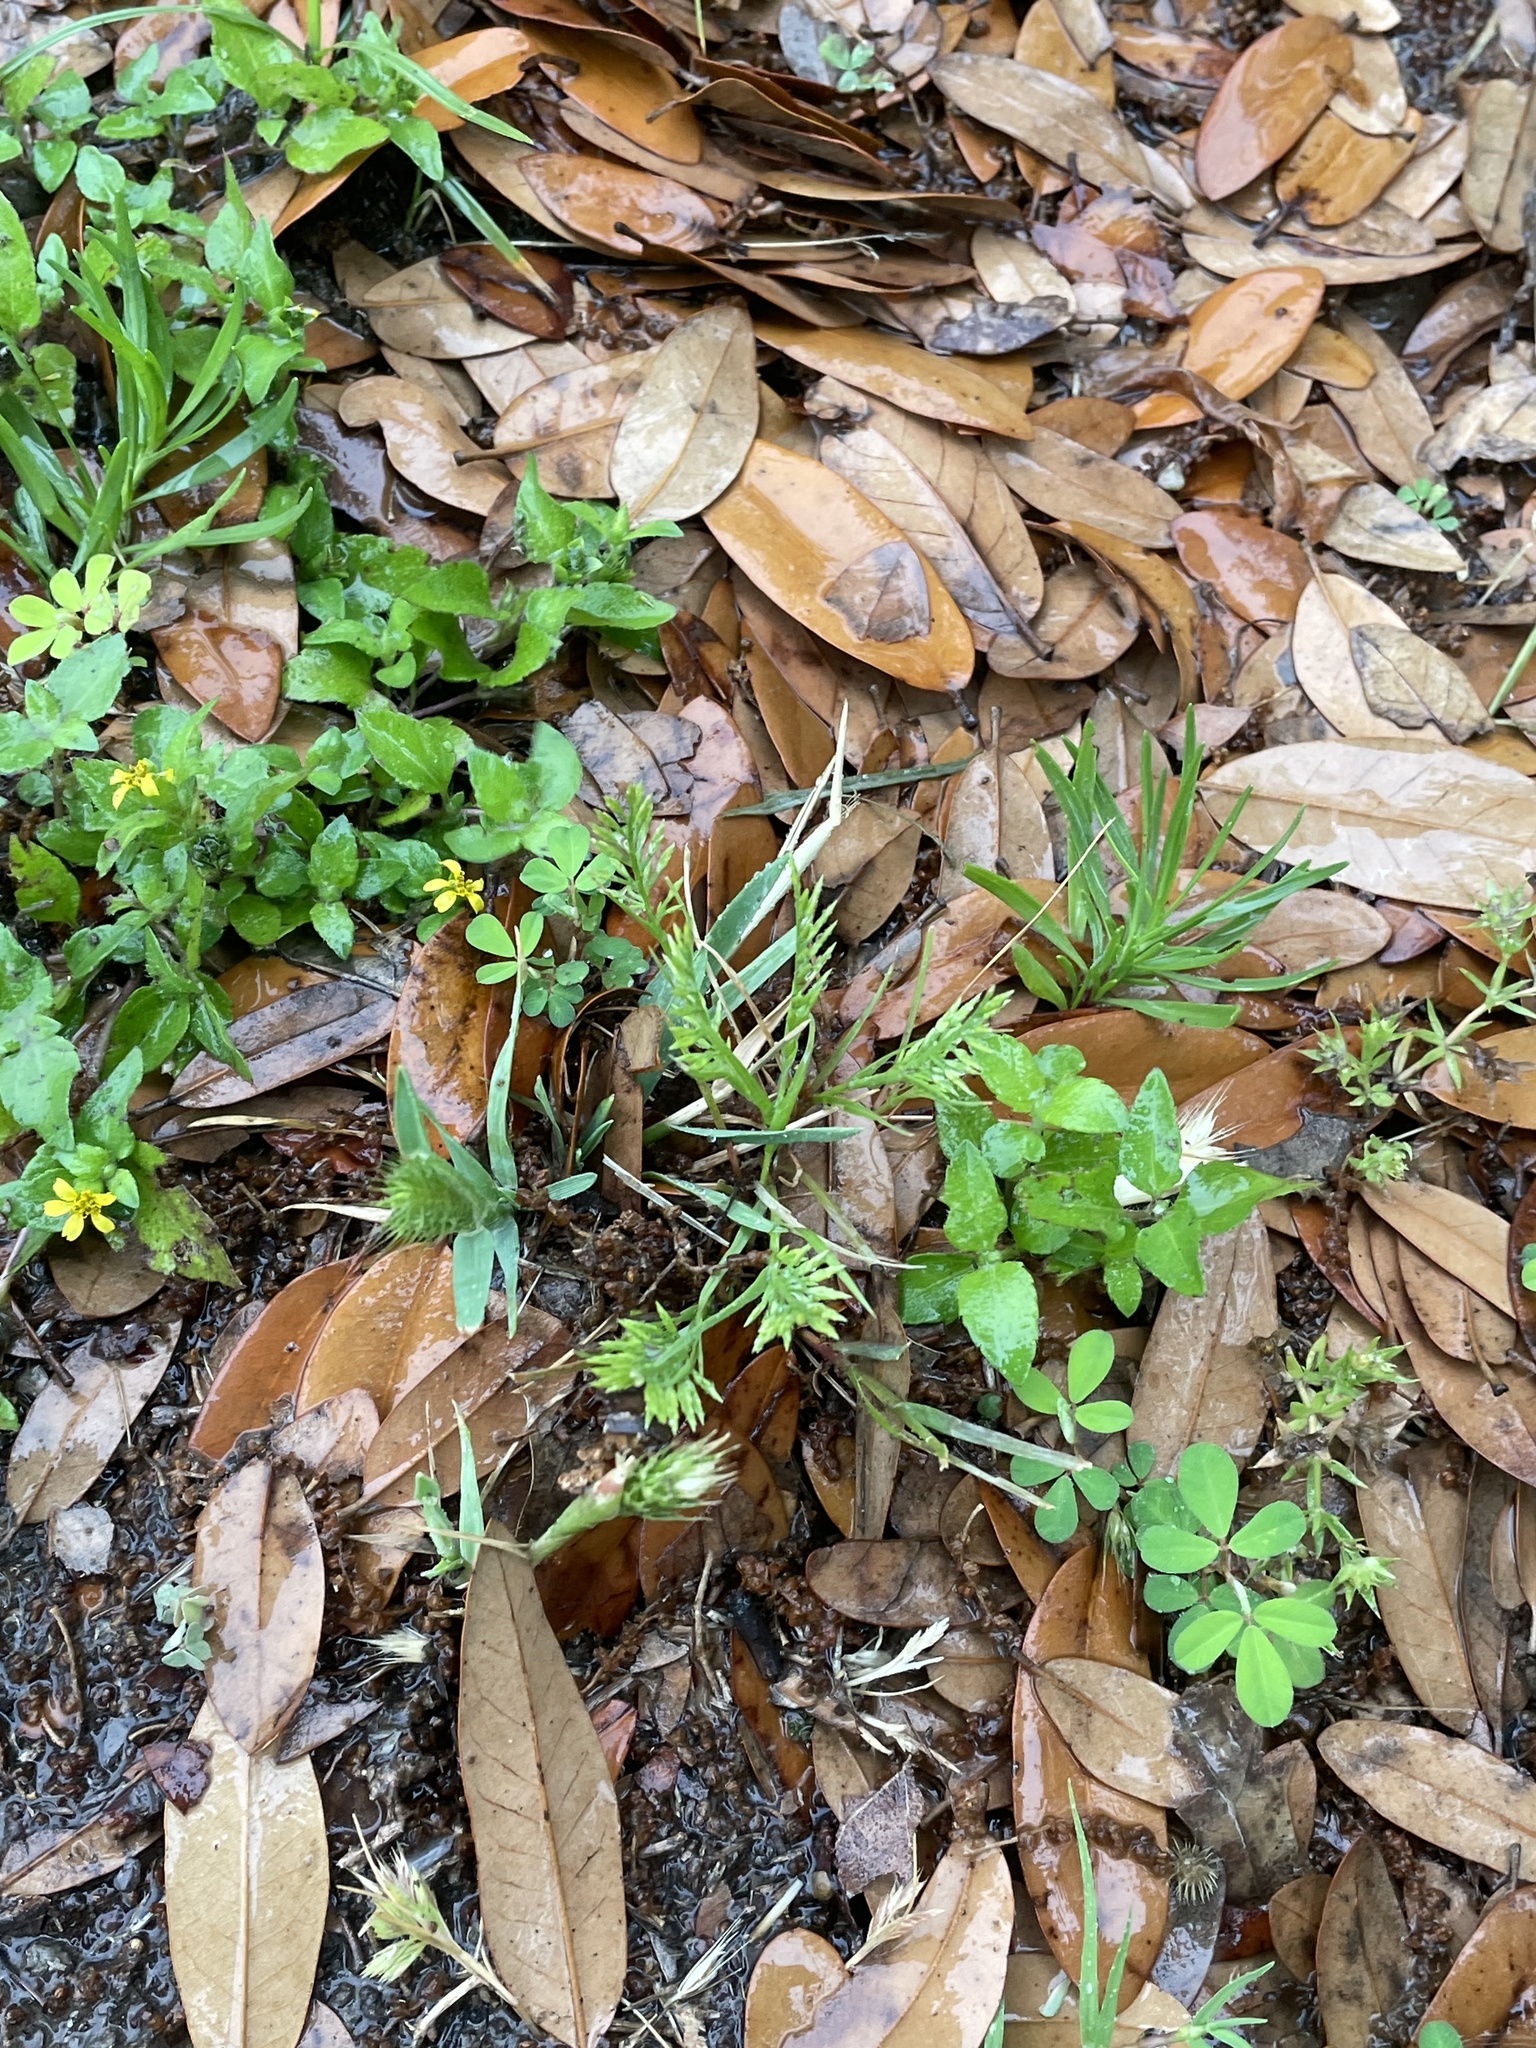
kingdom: Plantae
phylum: Tracheophyta
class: Liliopsida
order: Poales
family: Poaceae
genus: Catapodium
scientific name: Catapodium rigidum
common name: Fern-grass
